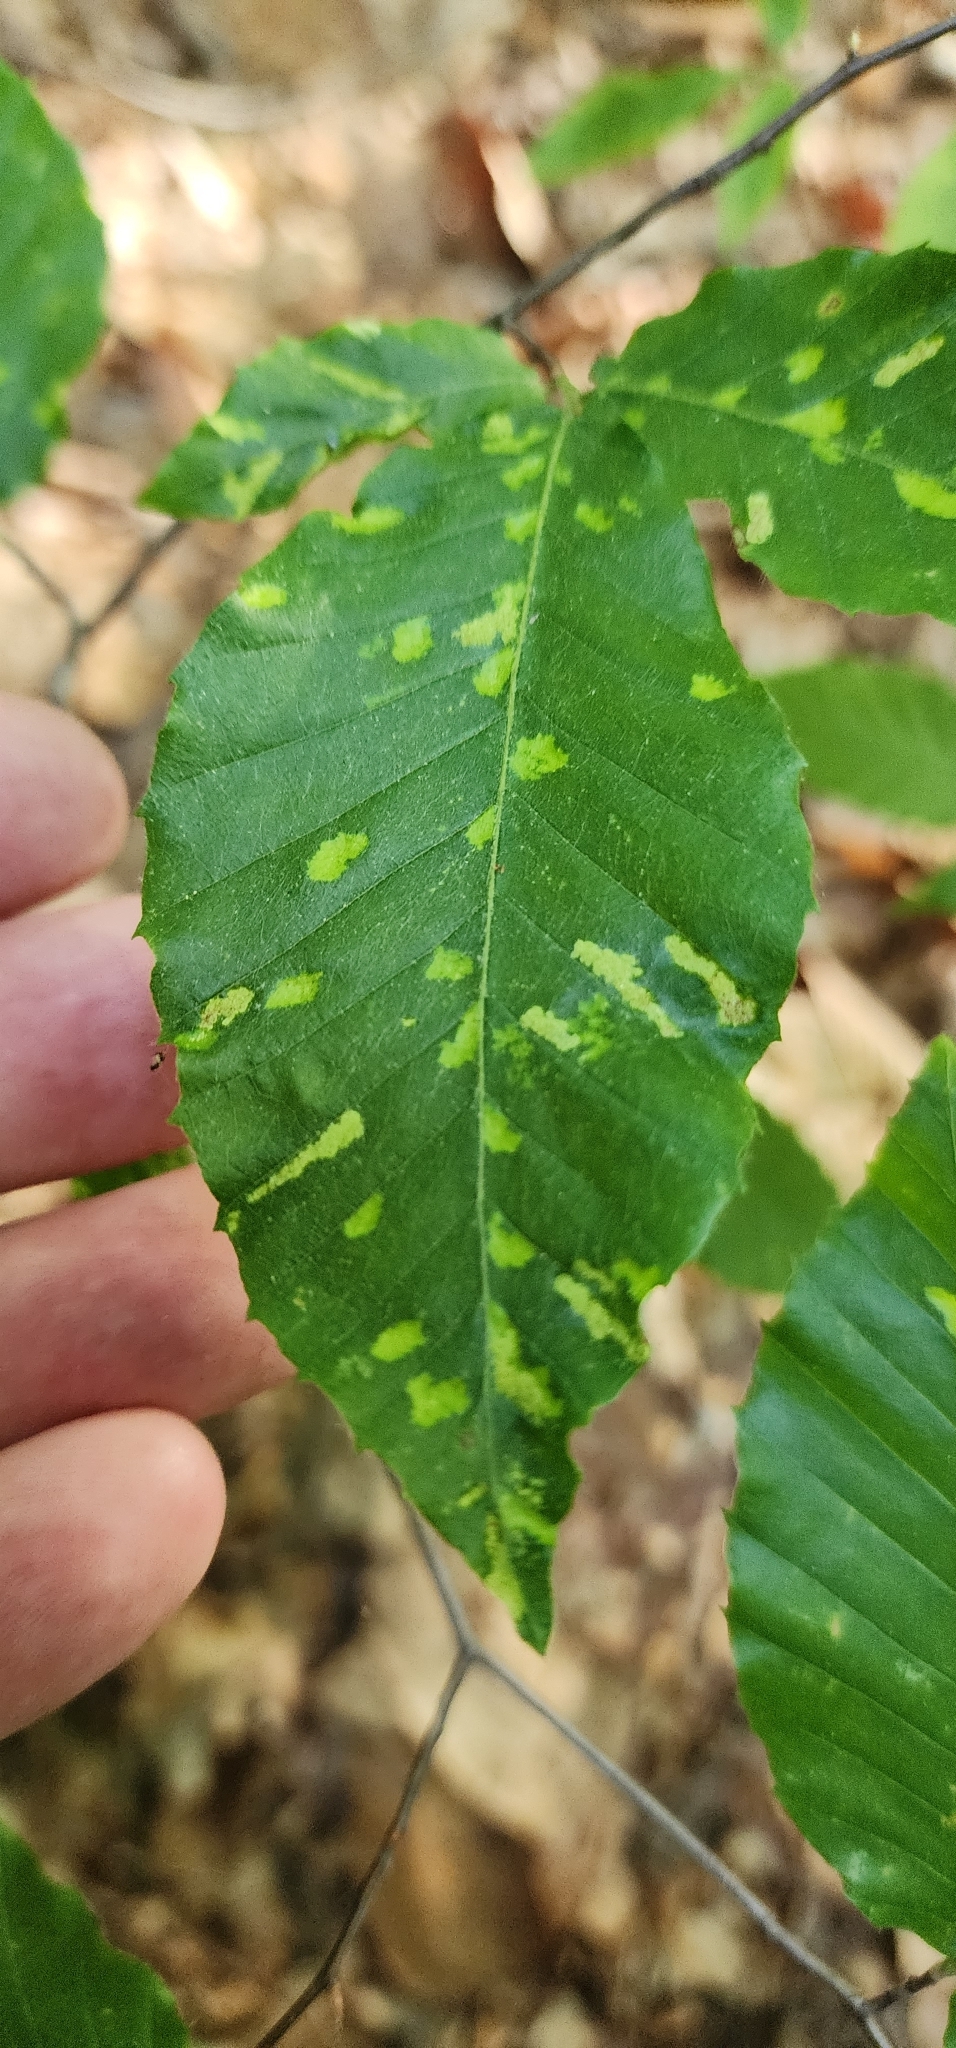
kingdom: Animalia
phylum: Arthropoda
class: Arachnida
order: Trombidiformes
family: Eriophyidae
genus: Acalitus
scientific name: Acalitus
